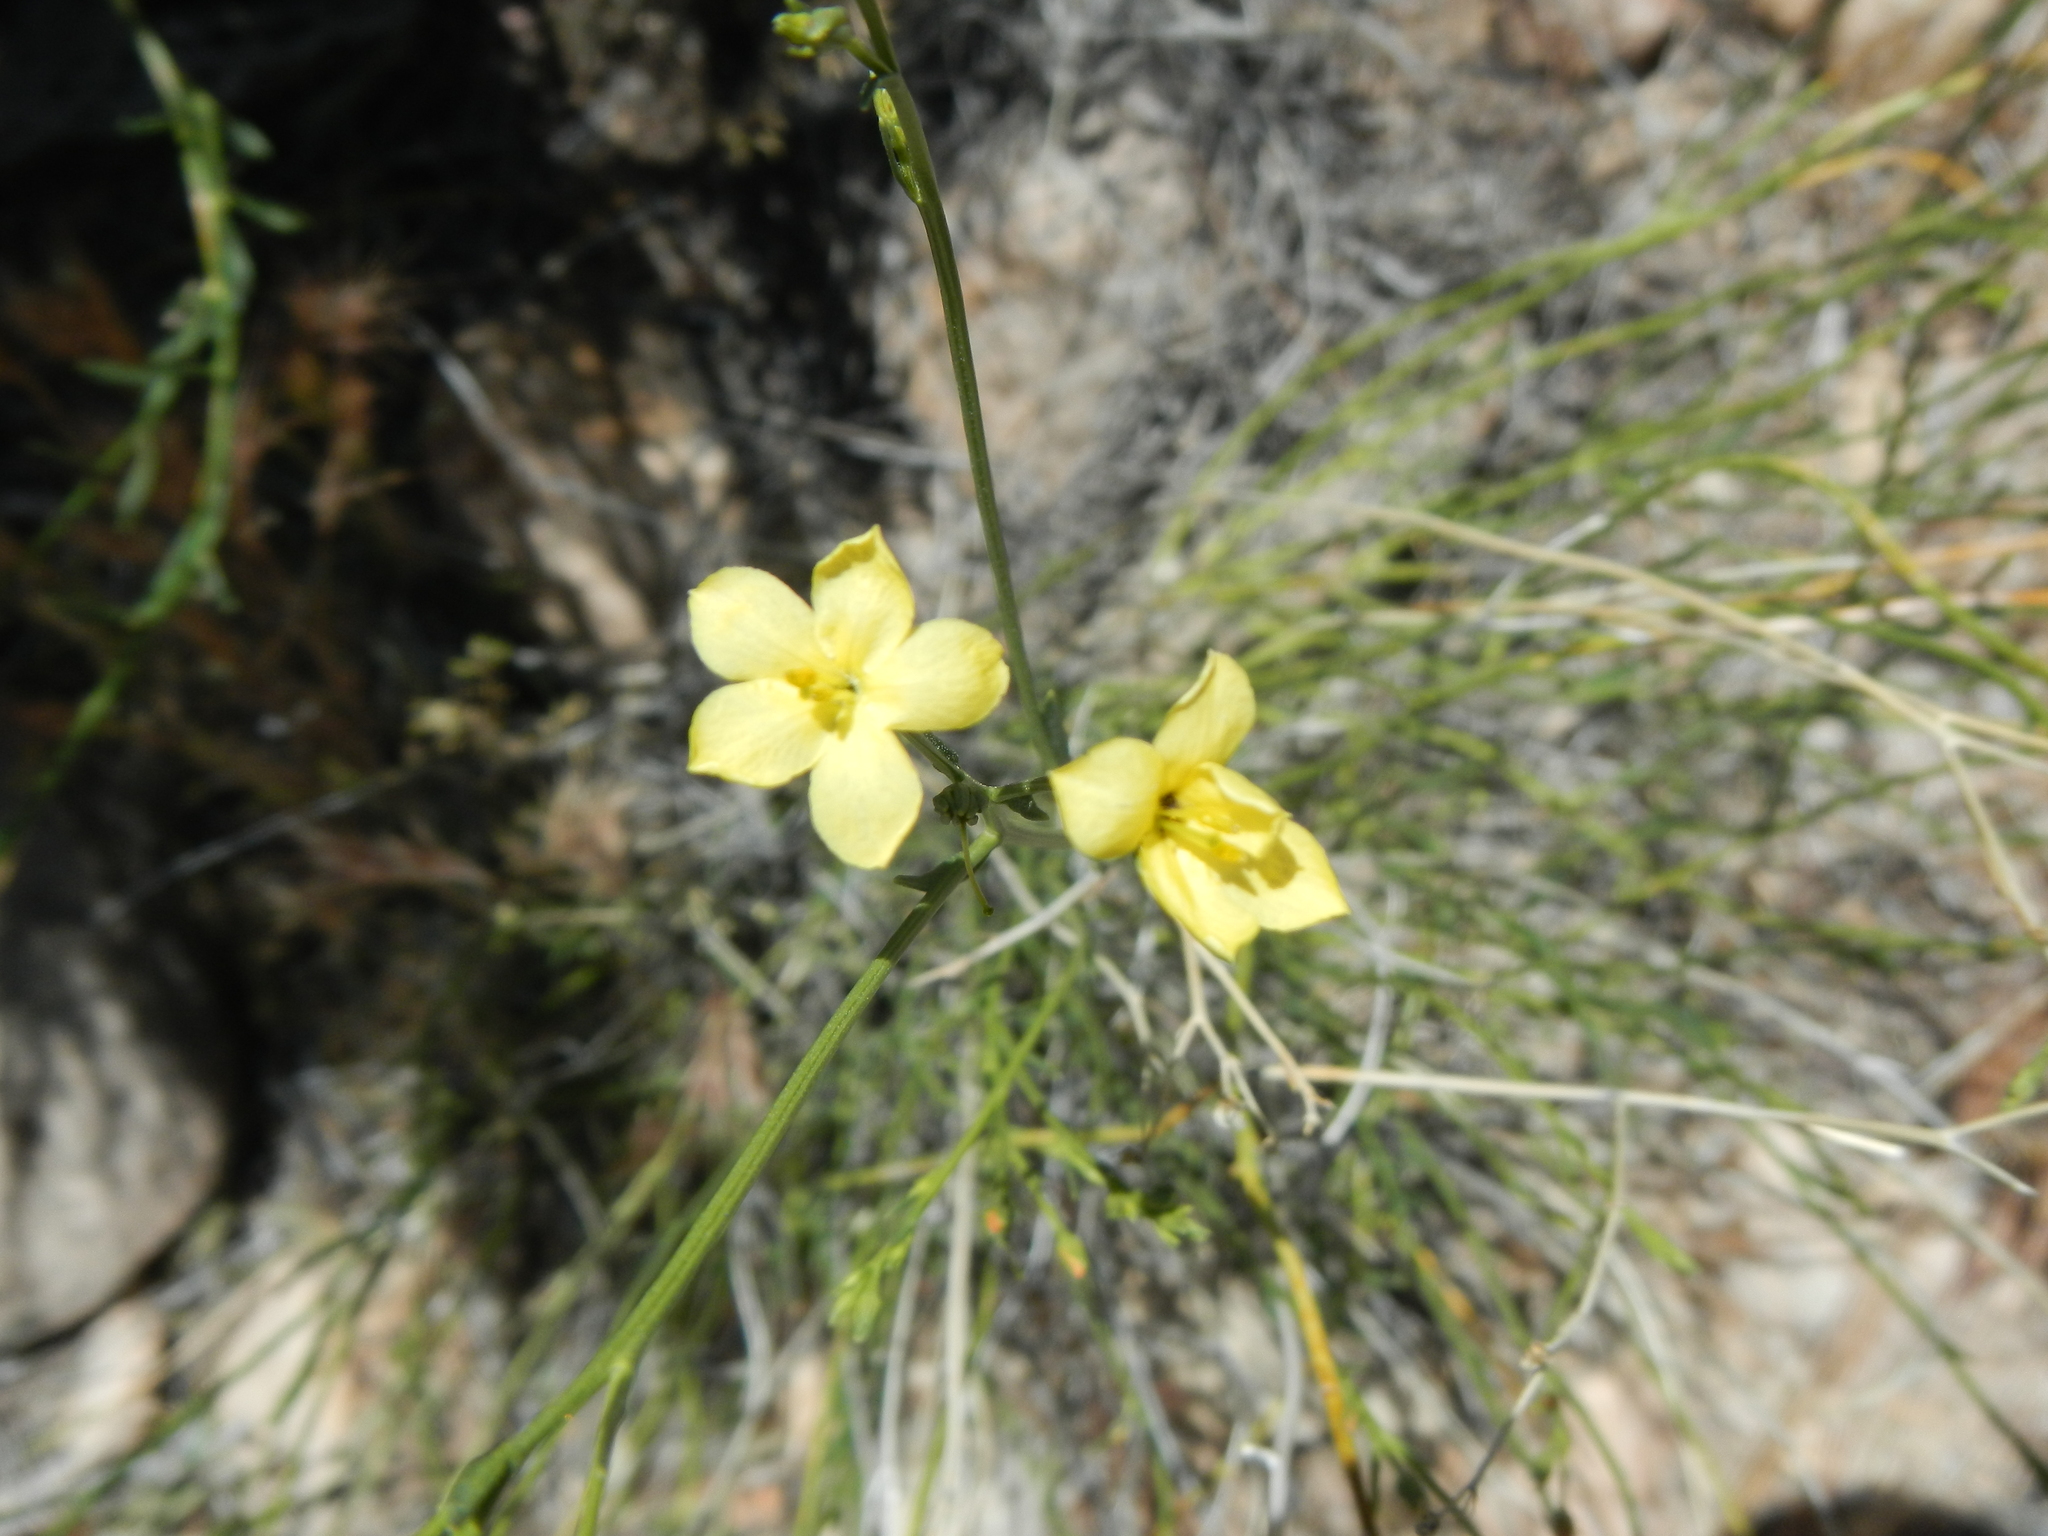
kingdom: Plantae
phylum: Tracheophyta
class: Magnoliopsida
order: Lamiales
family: Oleaceae
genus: Menodora
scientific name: Menodora scabra
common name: Rough menodora
